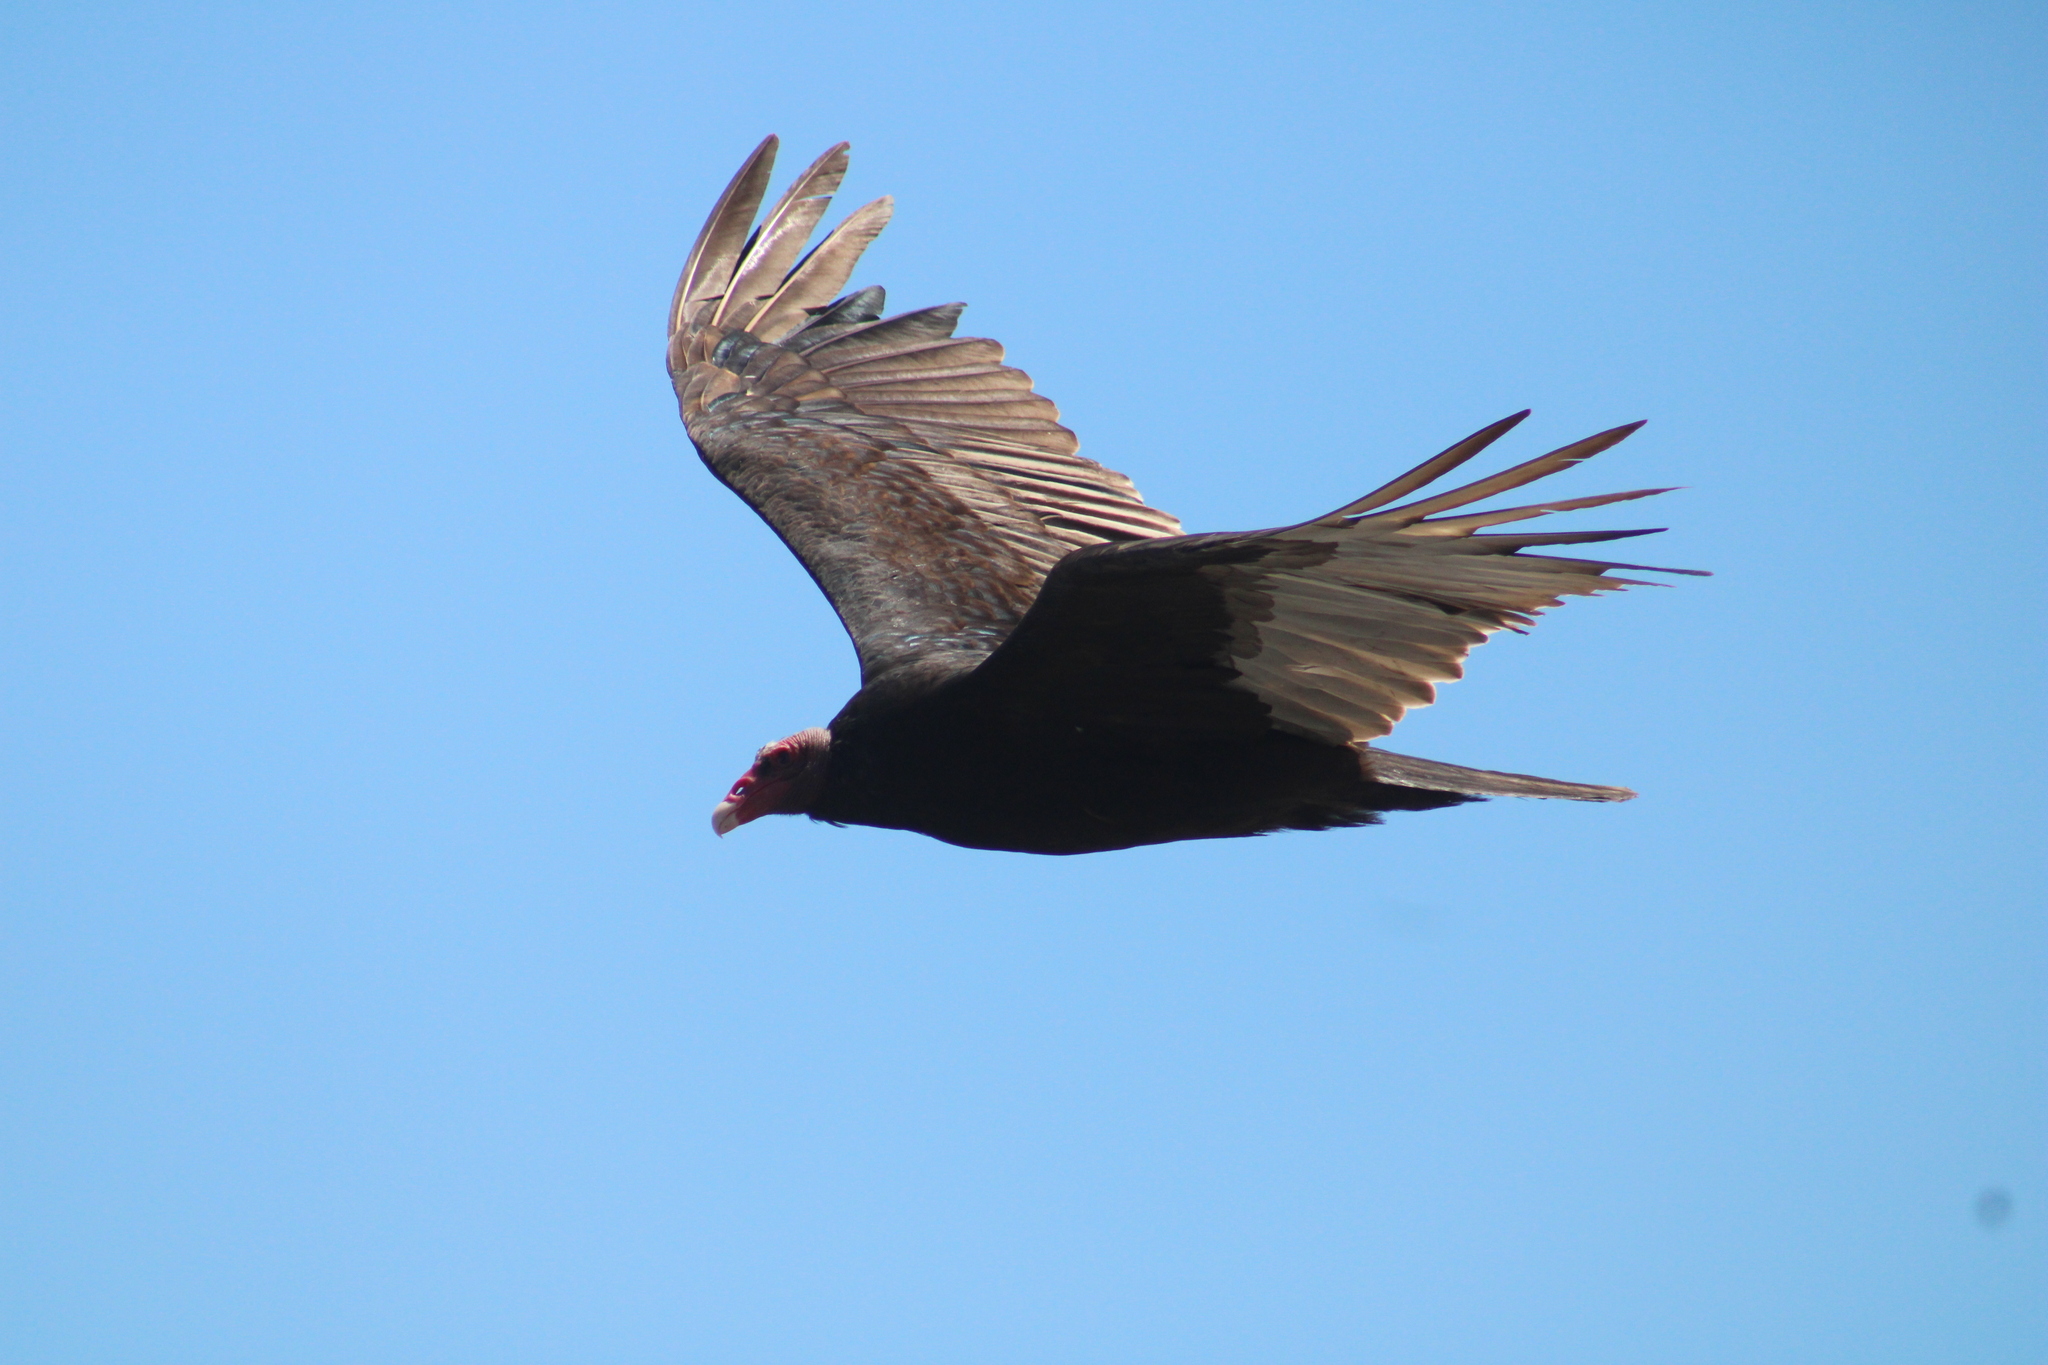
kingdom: Animalia
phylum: Chordata
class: Aves
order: Accipitriformes
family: Cathartidae
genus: Cathartes
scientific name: Cathartes aura
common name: Turkey vulture
